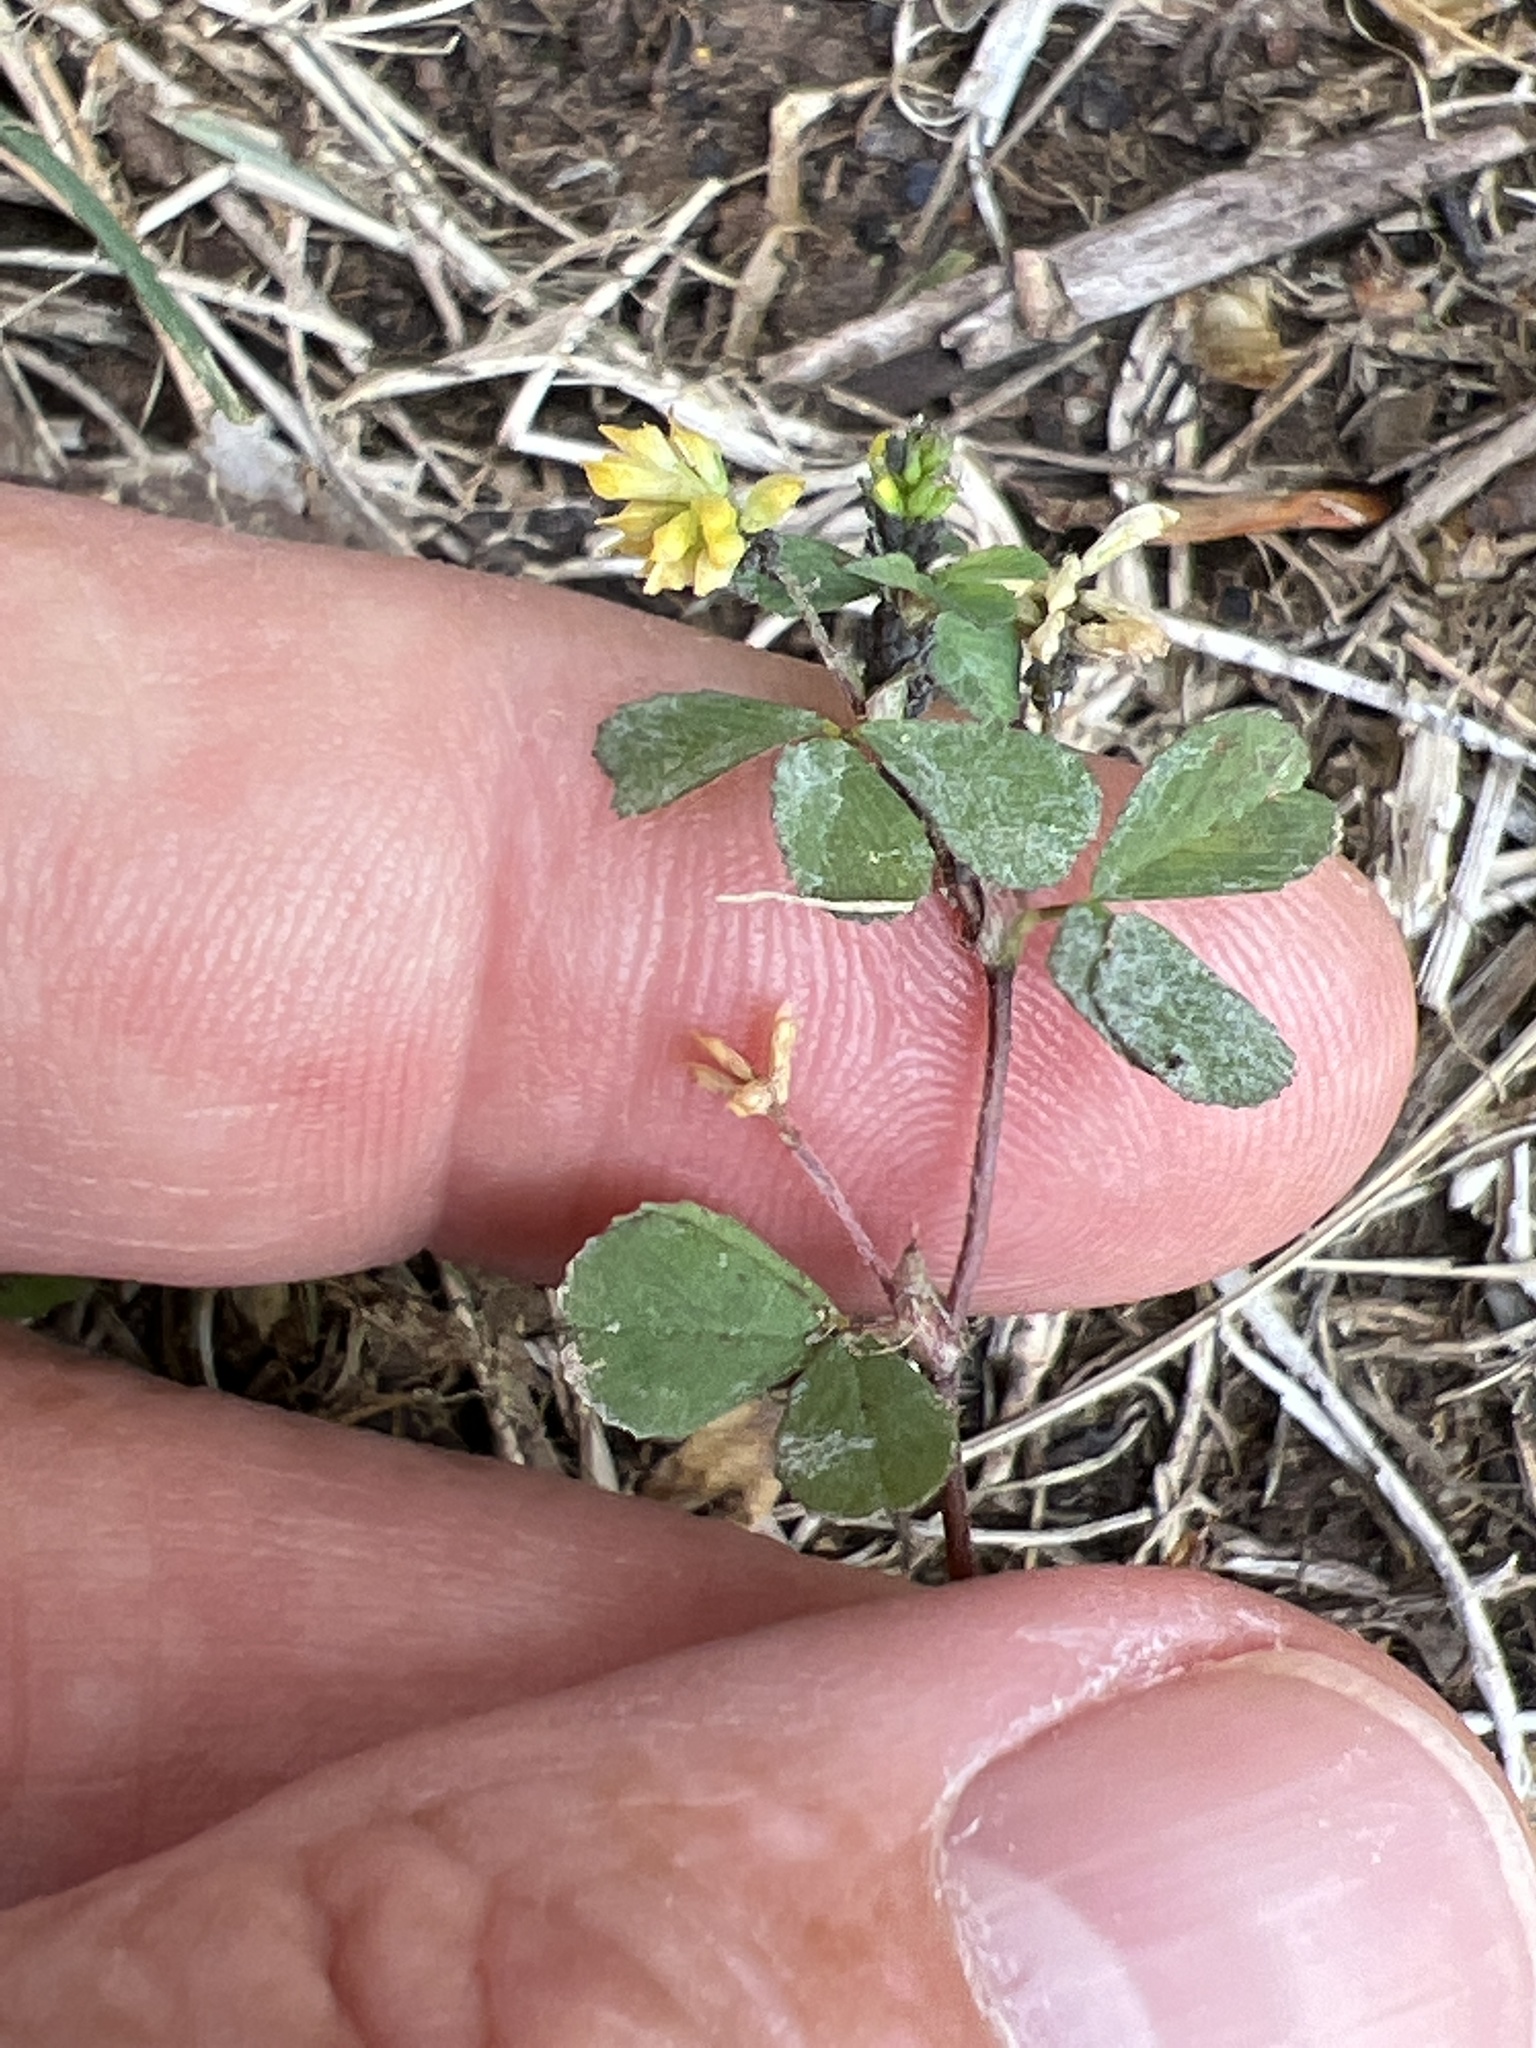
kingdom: Plantae
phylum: Tracheophyta
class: Magnoliopsida
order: Fabales
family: Fabaceae
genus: Trifolium
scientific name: Trifolium dubium
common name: Suckling clover
